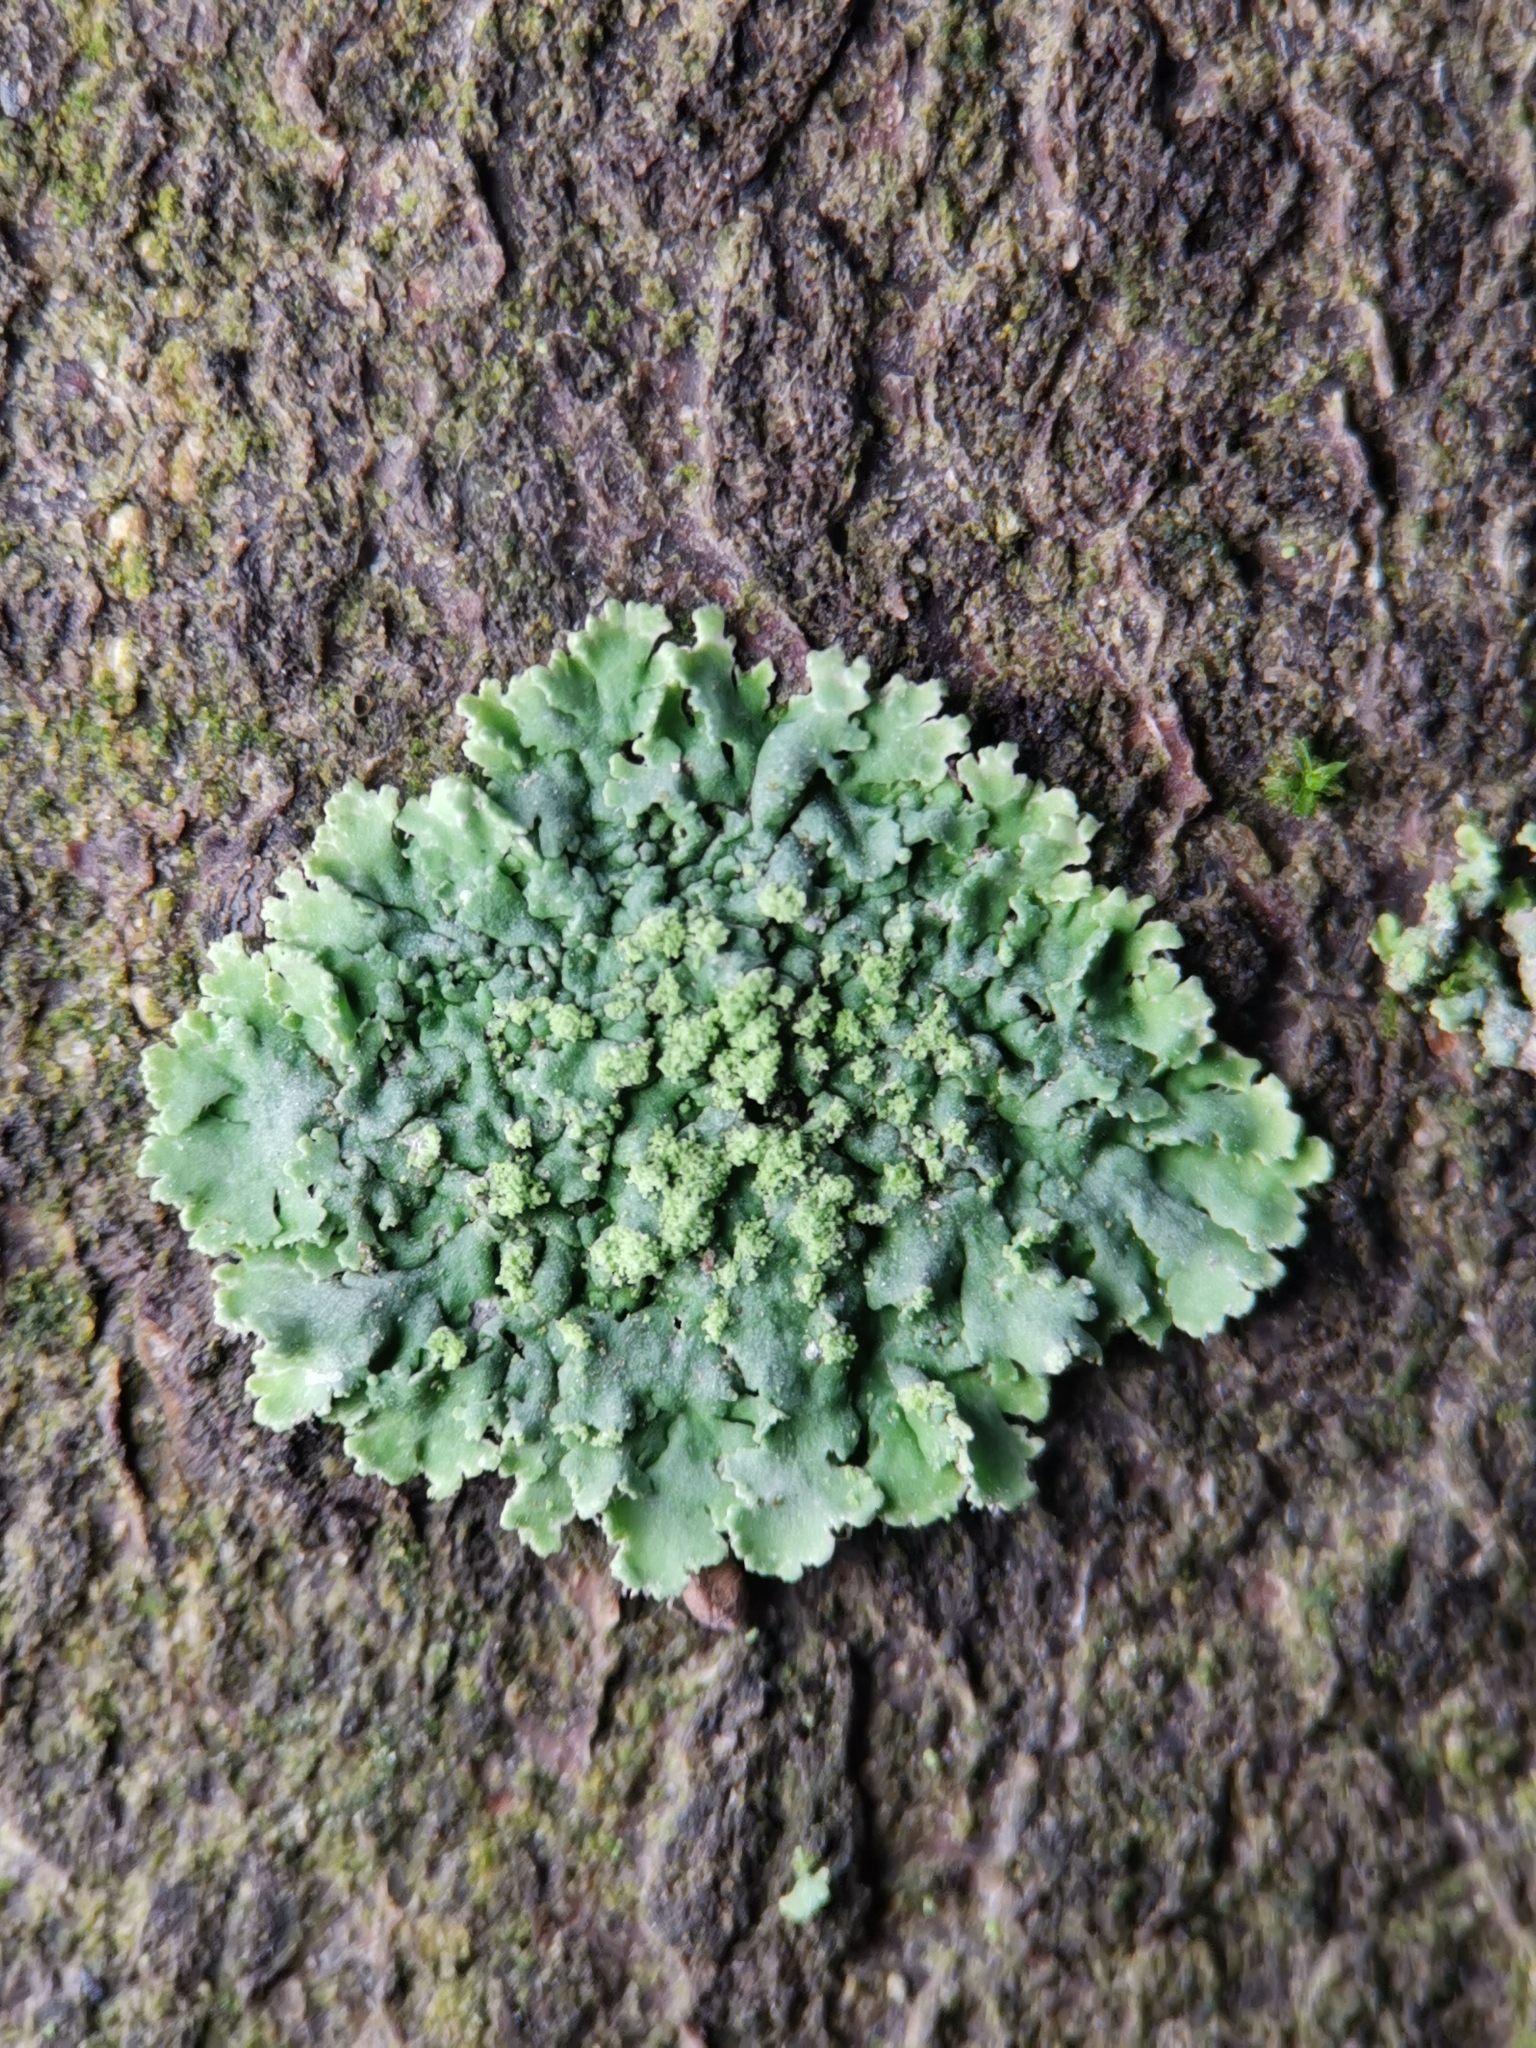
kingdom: Fungi
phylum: Ascomycota
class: Lecanoromycetes
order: Caliciales
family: Physciaceae
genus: Phaeophyscia
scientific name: Phaeophyscia orbicularis
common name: Mealy shadow lichen
